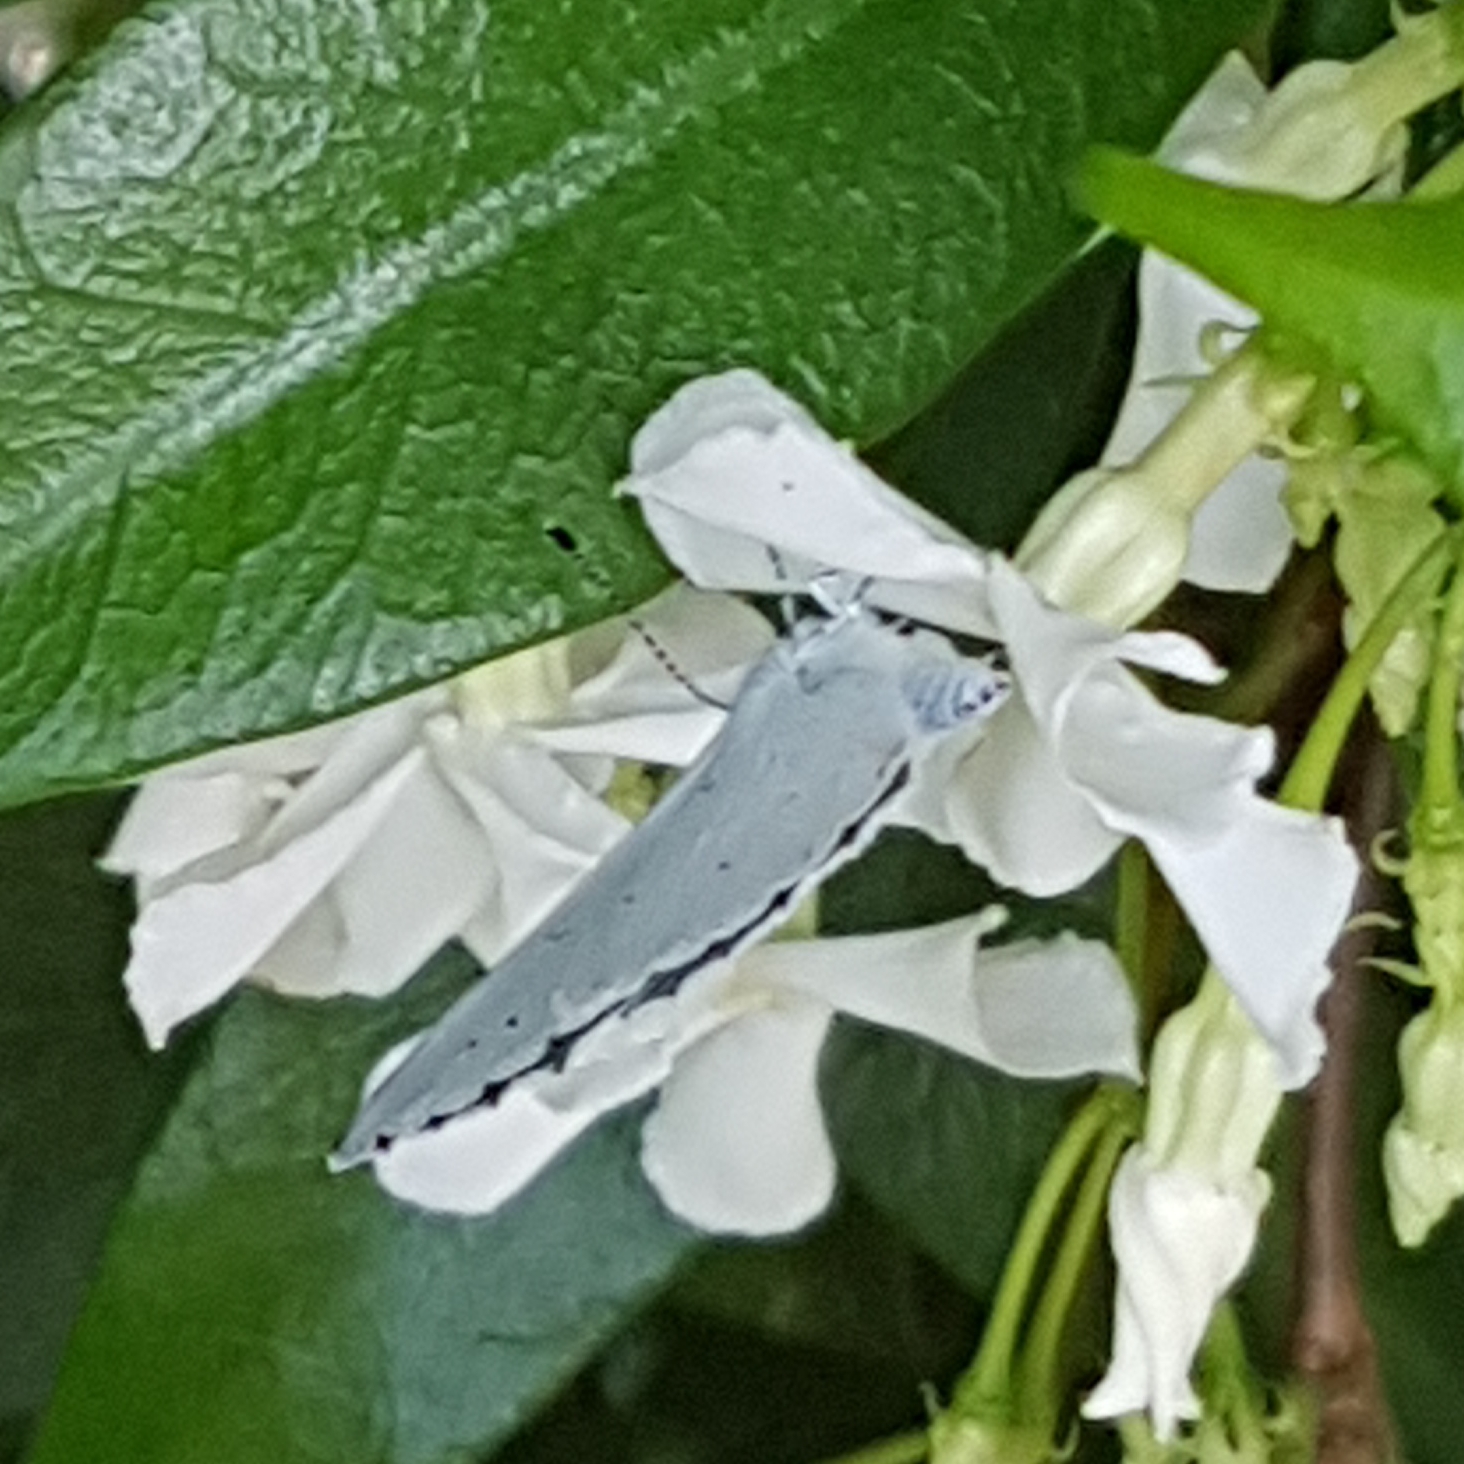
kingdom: Animalia
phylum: Arthropoda
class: Insecta
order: Lepidoptera
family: Lycaenidae
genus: Celastrina
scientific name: Celastrina argiolus
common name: Holly blue
